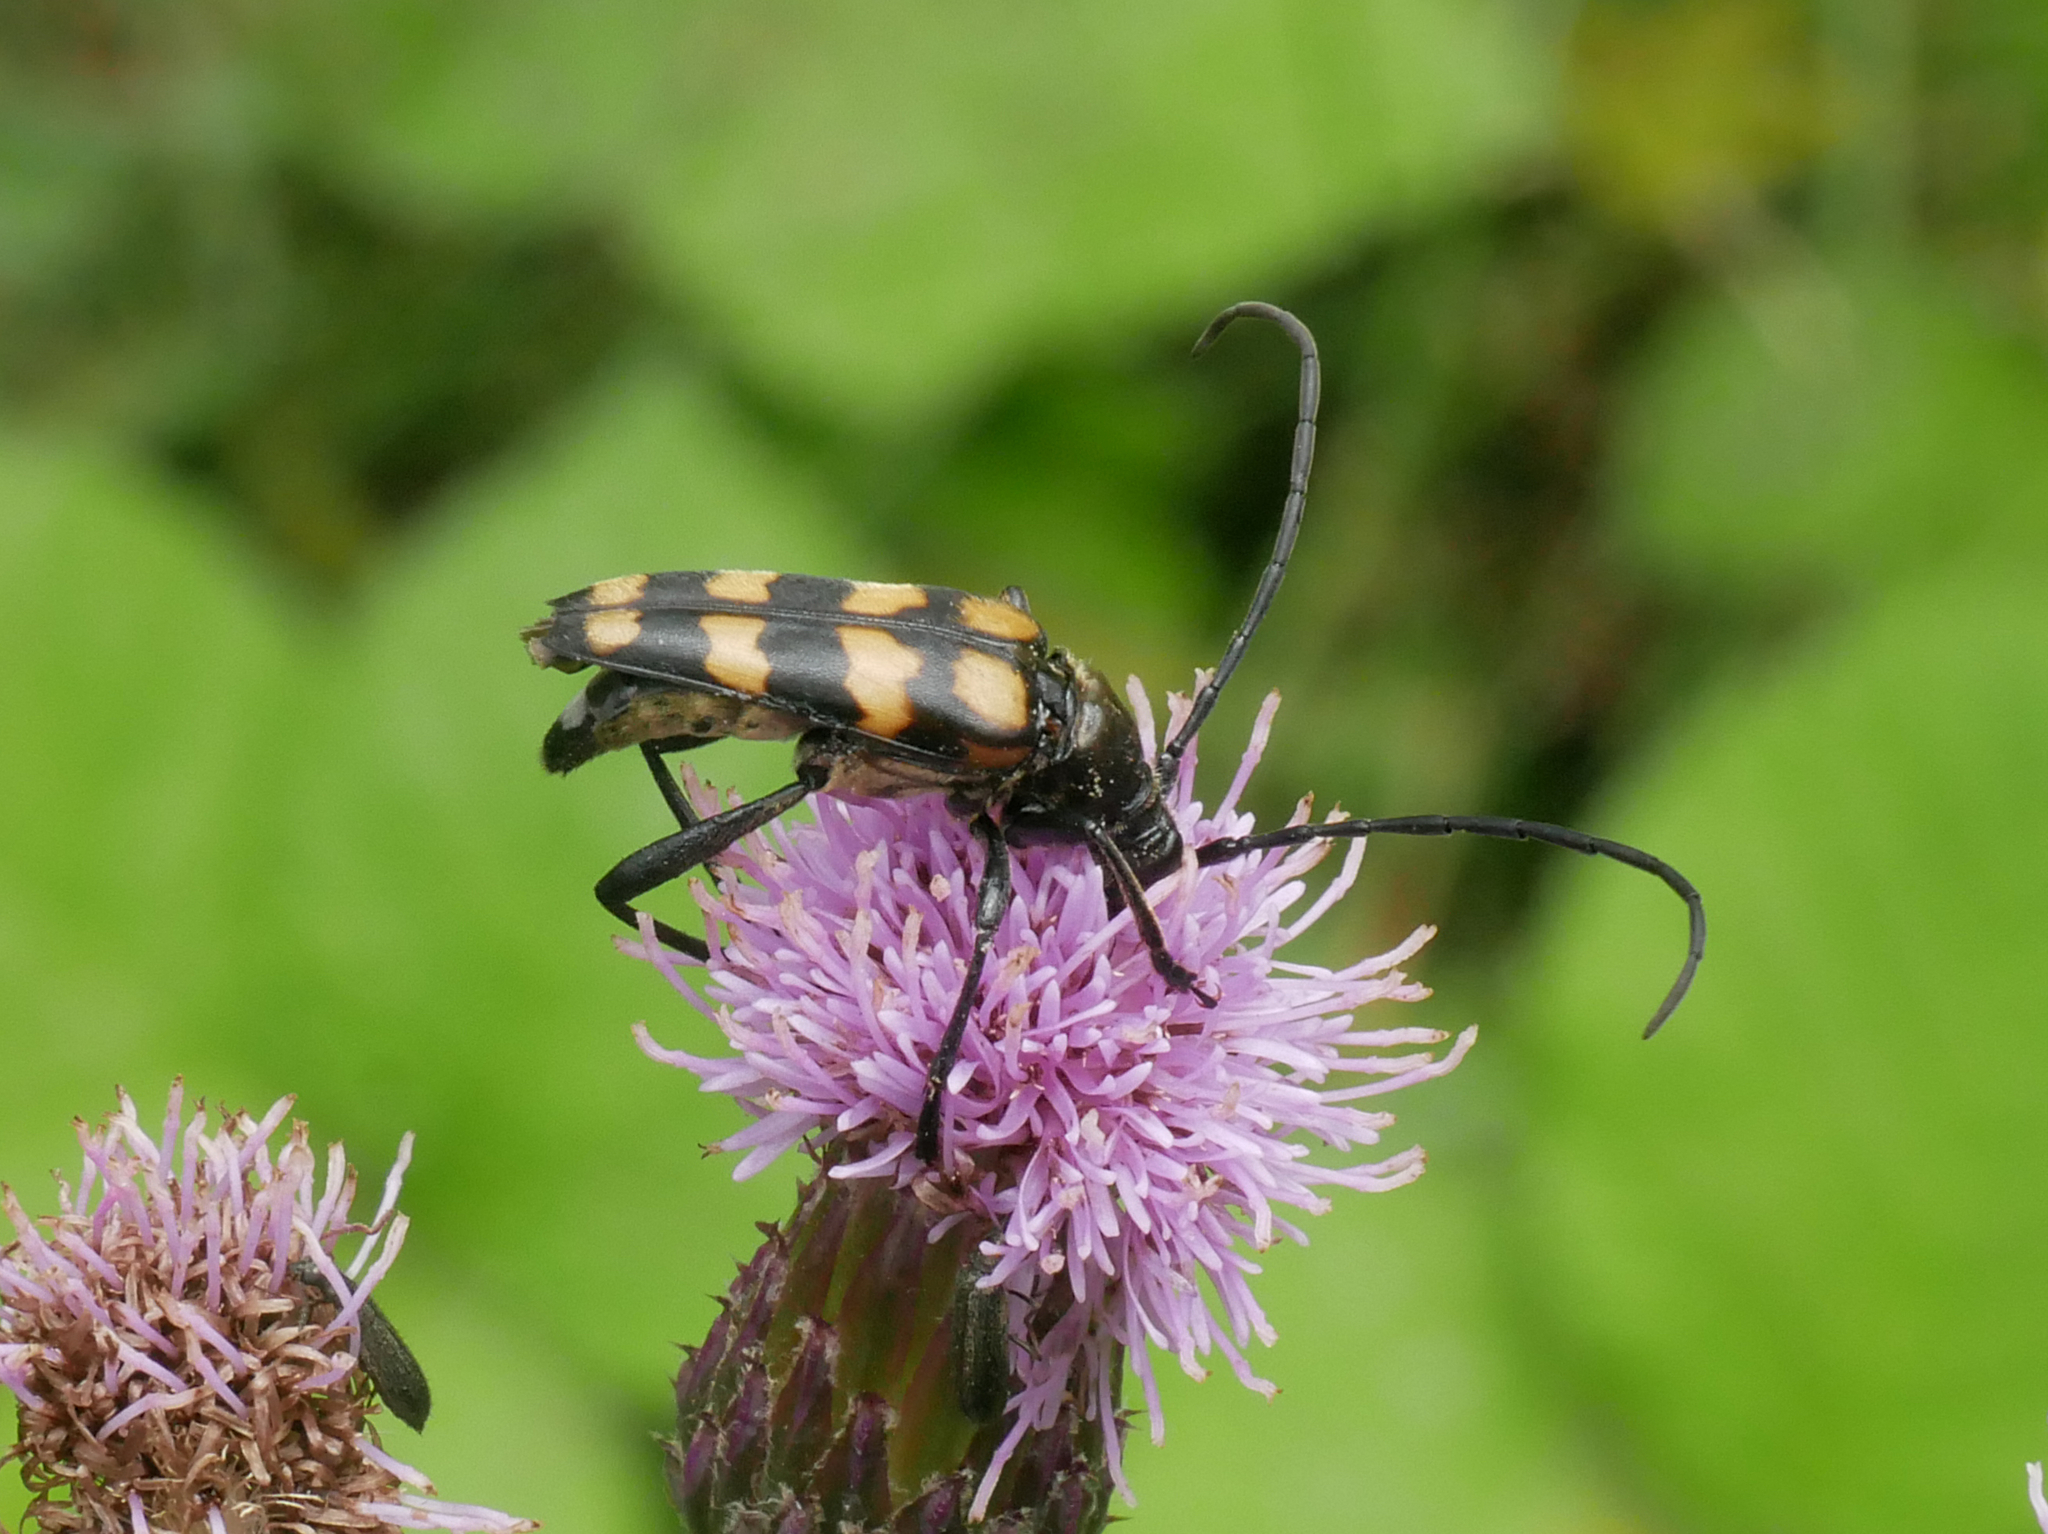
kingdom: Animalia
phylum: Arthropoda
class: Insecta
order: Coleoptera
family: Cerambycidae
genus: Leptura
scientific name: Leptura quadrifasciata
